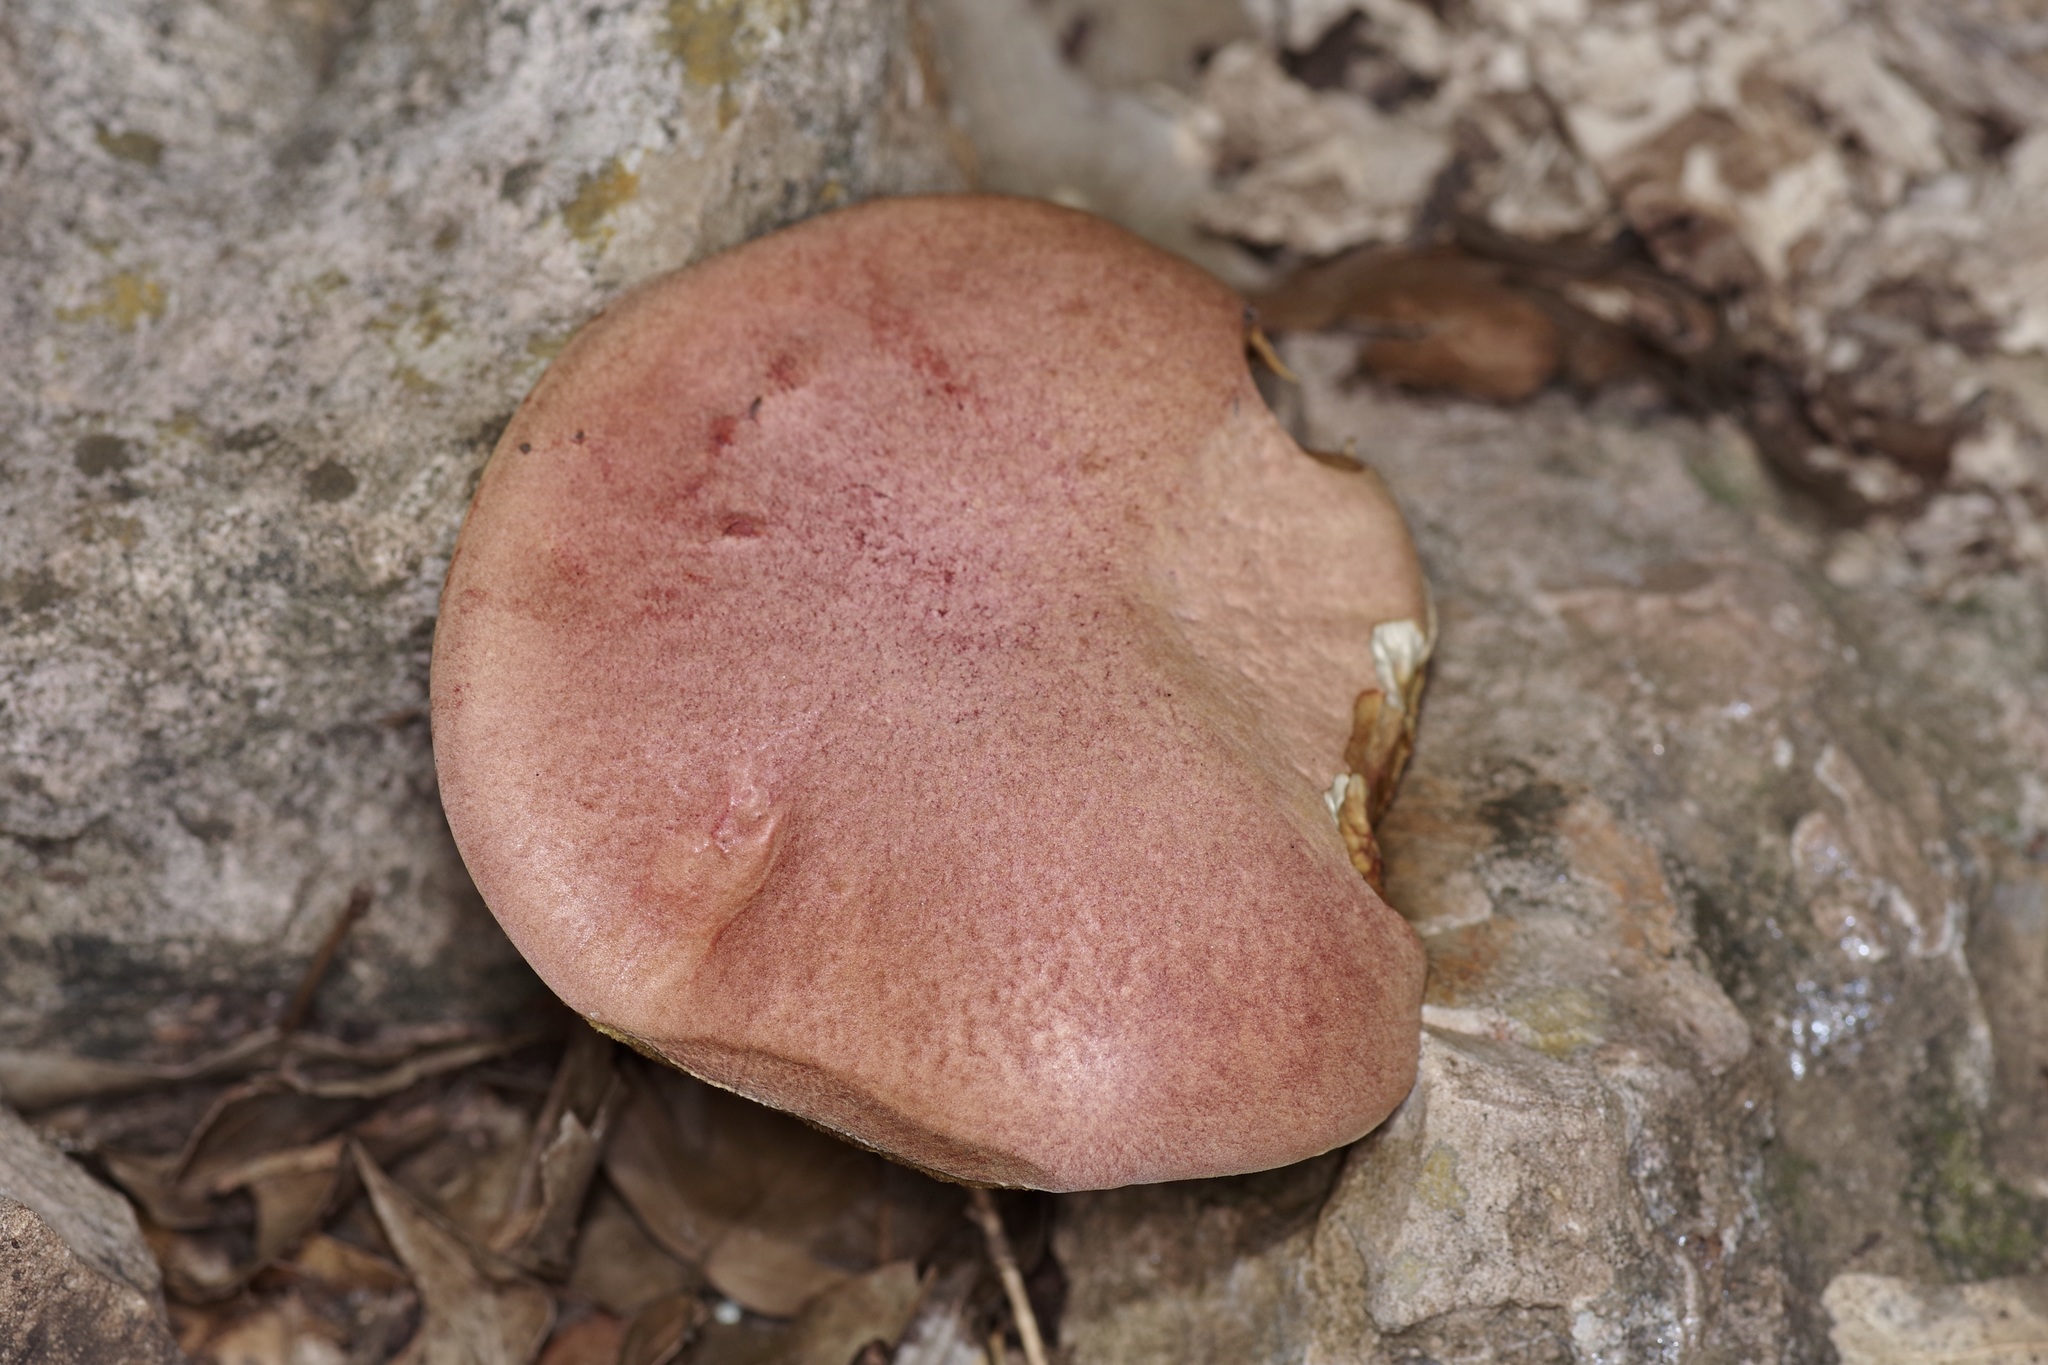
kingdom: Fungi
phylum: Basidiomycota
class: Agaricomycetes
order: Boletales
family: Boletaceae
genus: Pulchroboletus
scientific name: Pulchroboletus rubricitrinus
